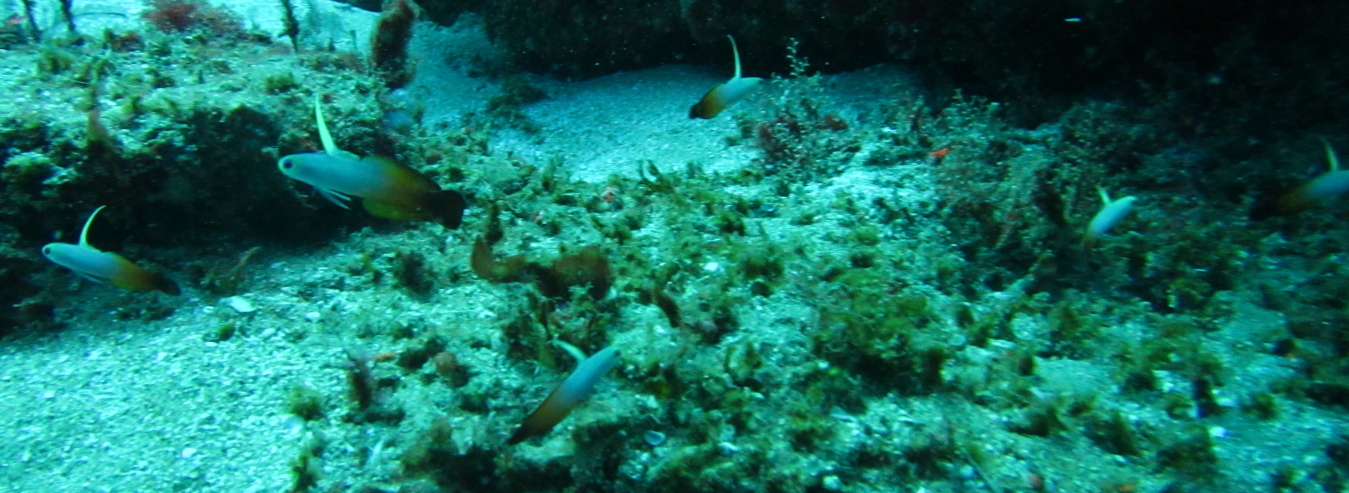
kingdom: Animalia
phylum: Chordata
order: Perciformes
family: Microdesmidae
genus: Nemateleotris
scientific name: Nemateleotris magnifica
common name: Fire goby
